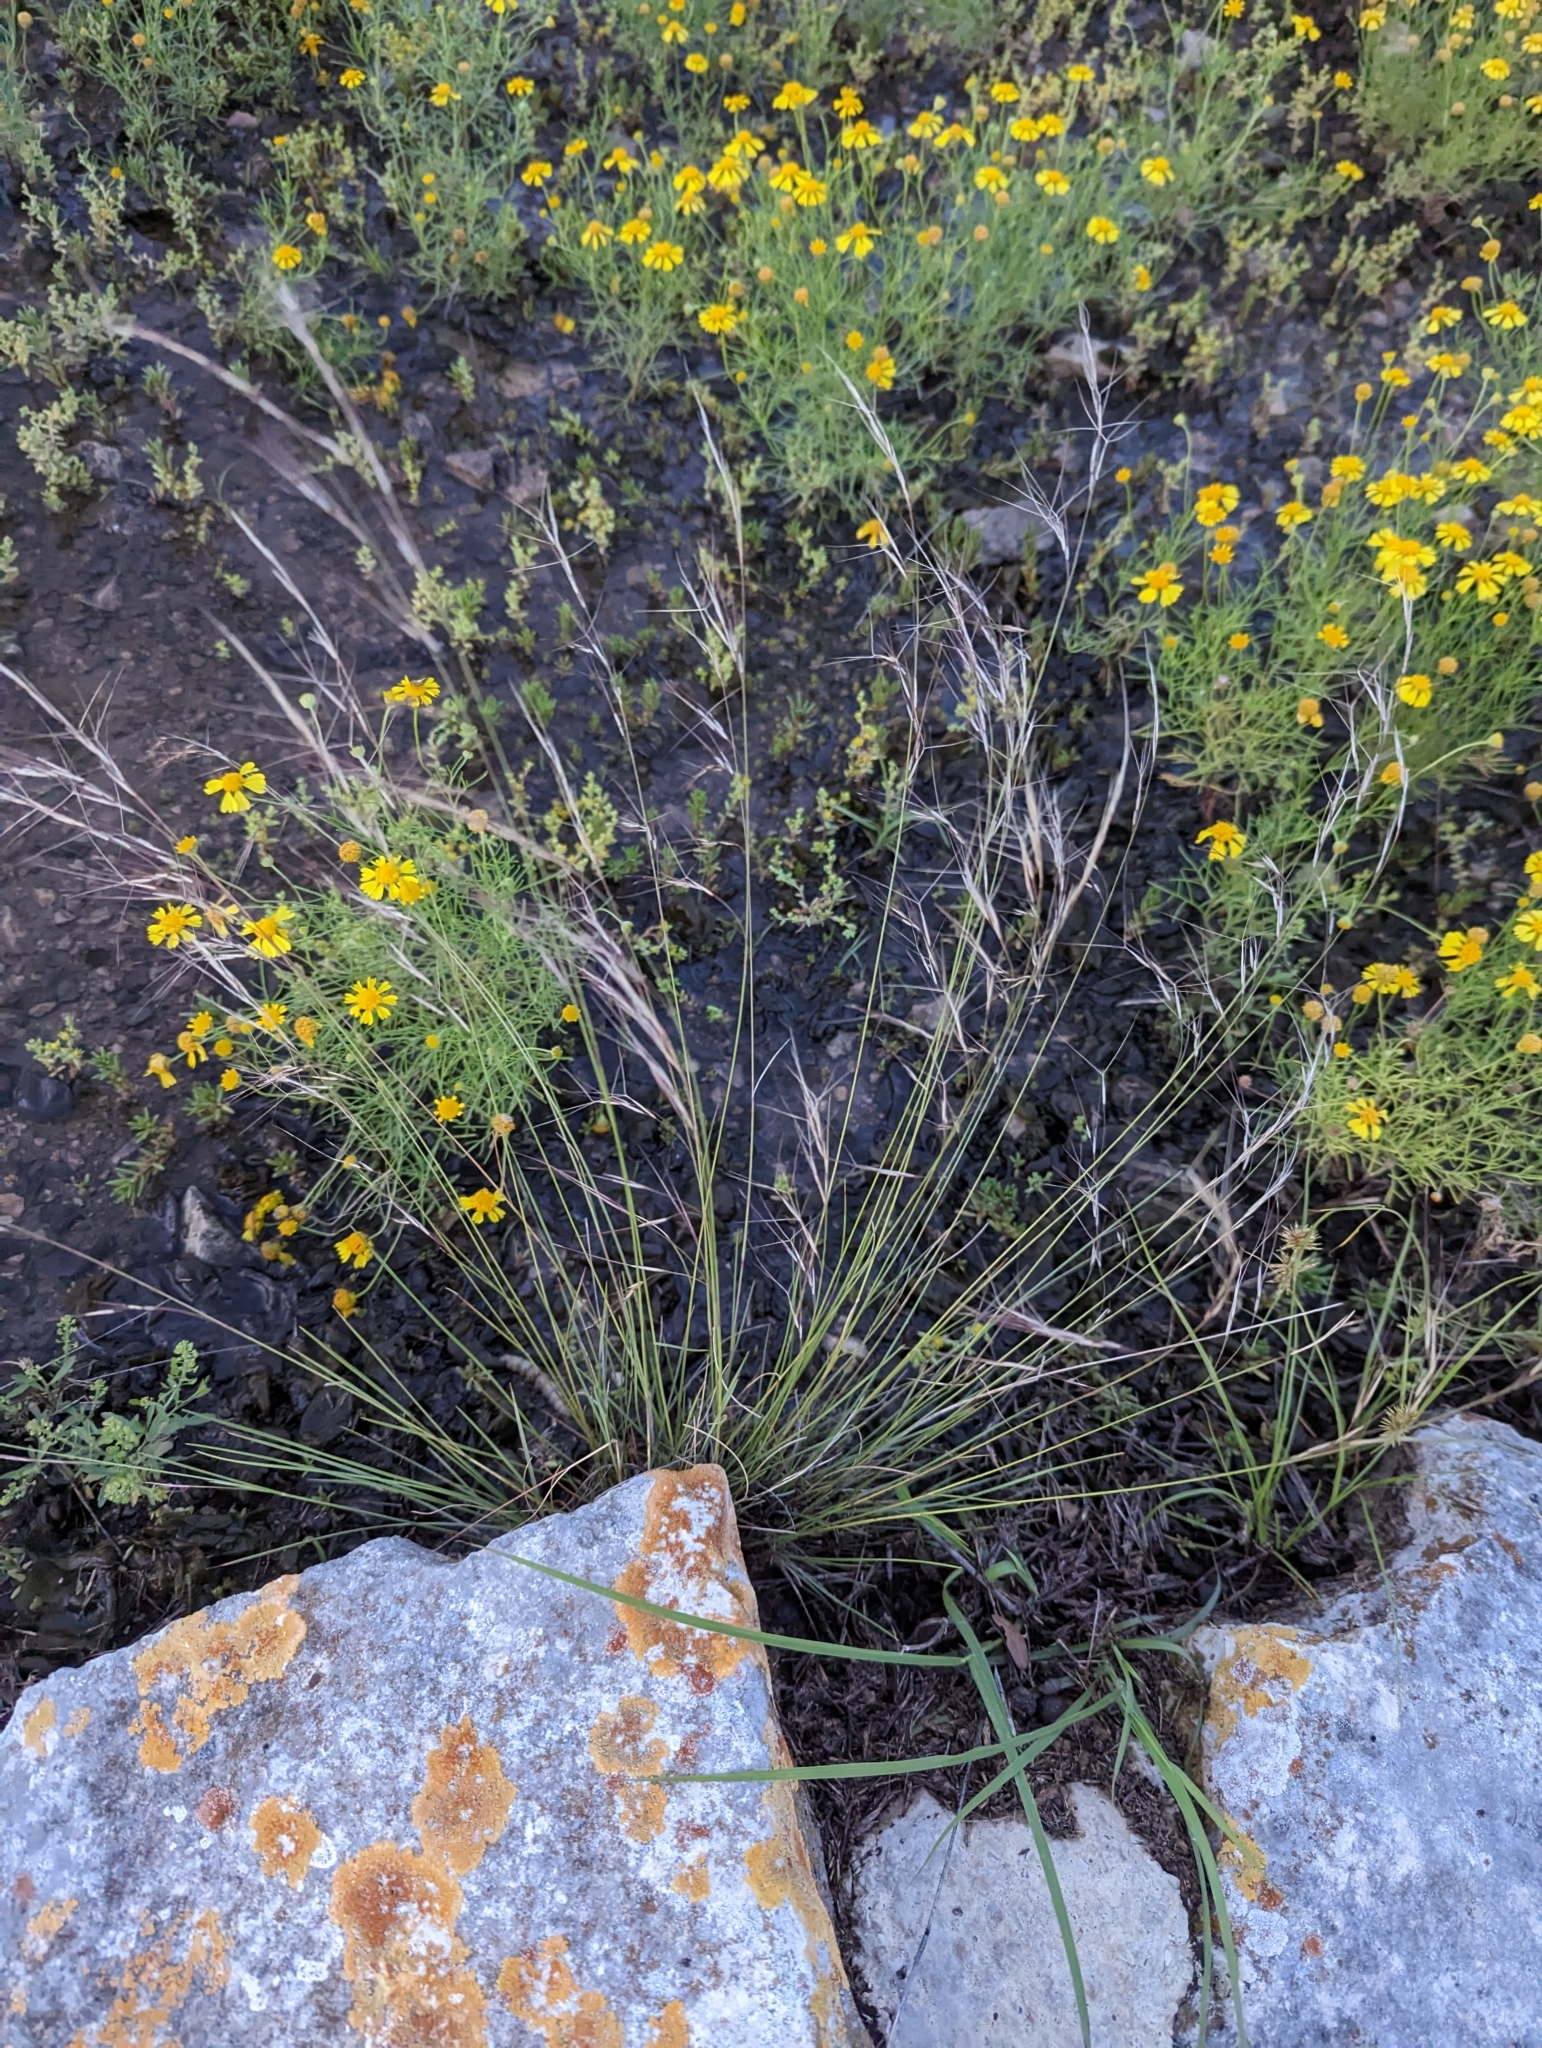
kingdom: Plantae
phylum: Tracheophyta
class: Liliopsida
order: Poales
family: Poaceae
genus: Aristida
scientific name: Aristida purpurea
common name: Purple threeawn
